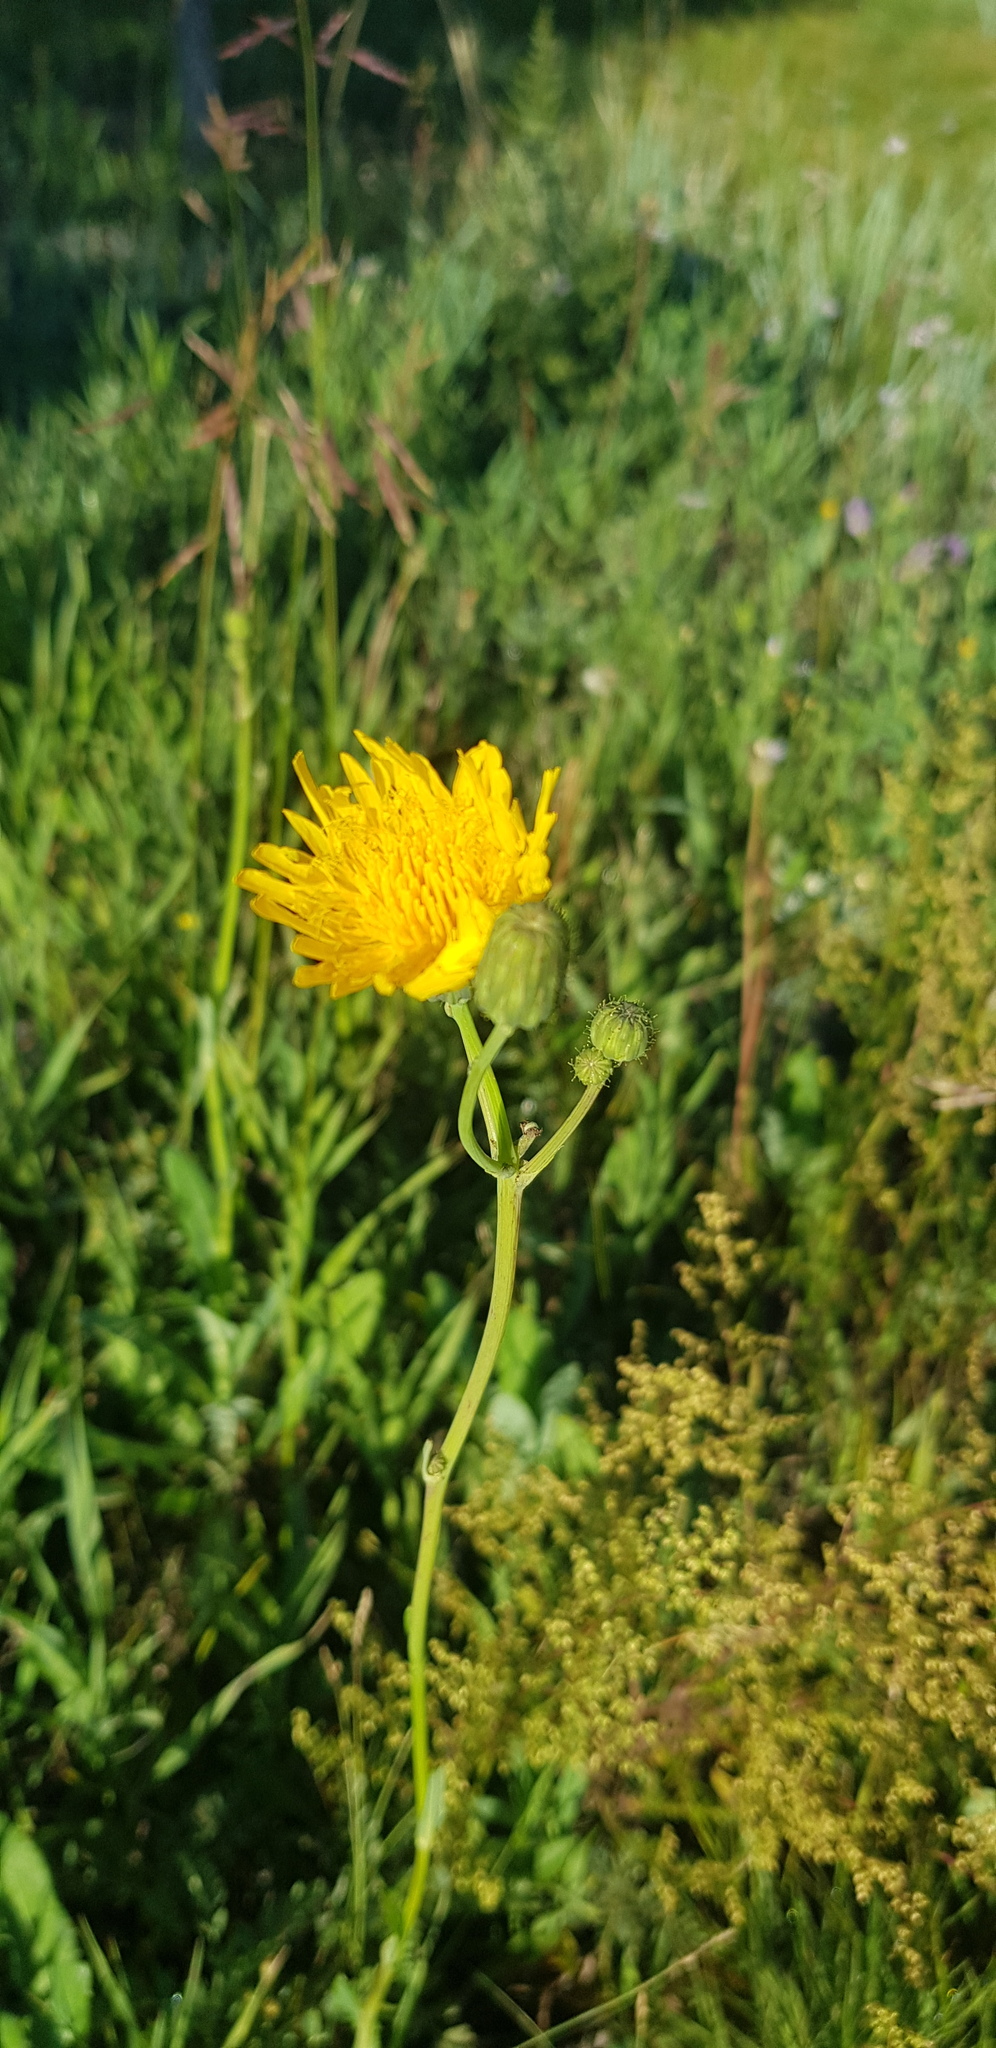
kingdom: Plantae
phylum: Tracheophyta
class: Magnoliopsida
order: Asterales
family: Asteraceae
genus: Sonchus
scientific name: Sonchus arvensis
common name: Perennial sow-thistle
